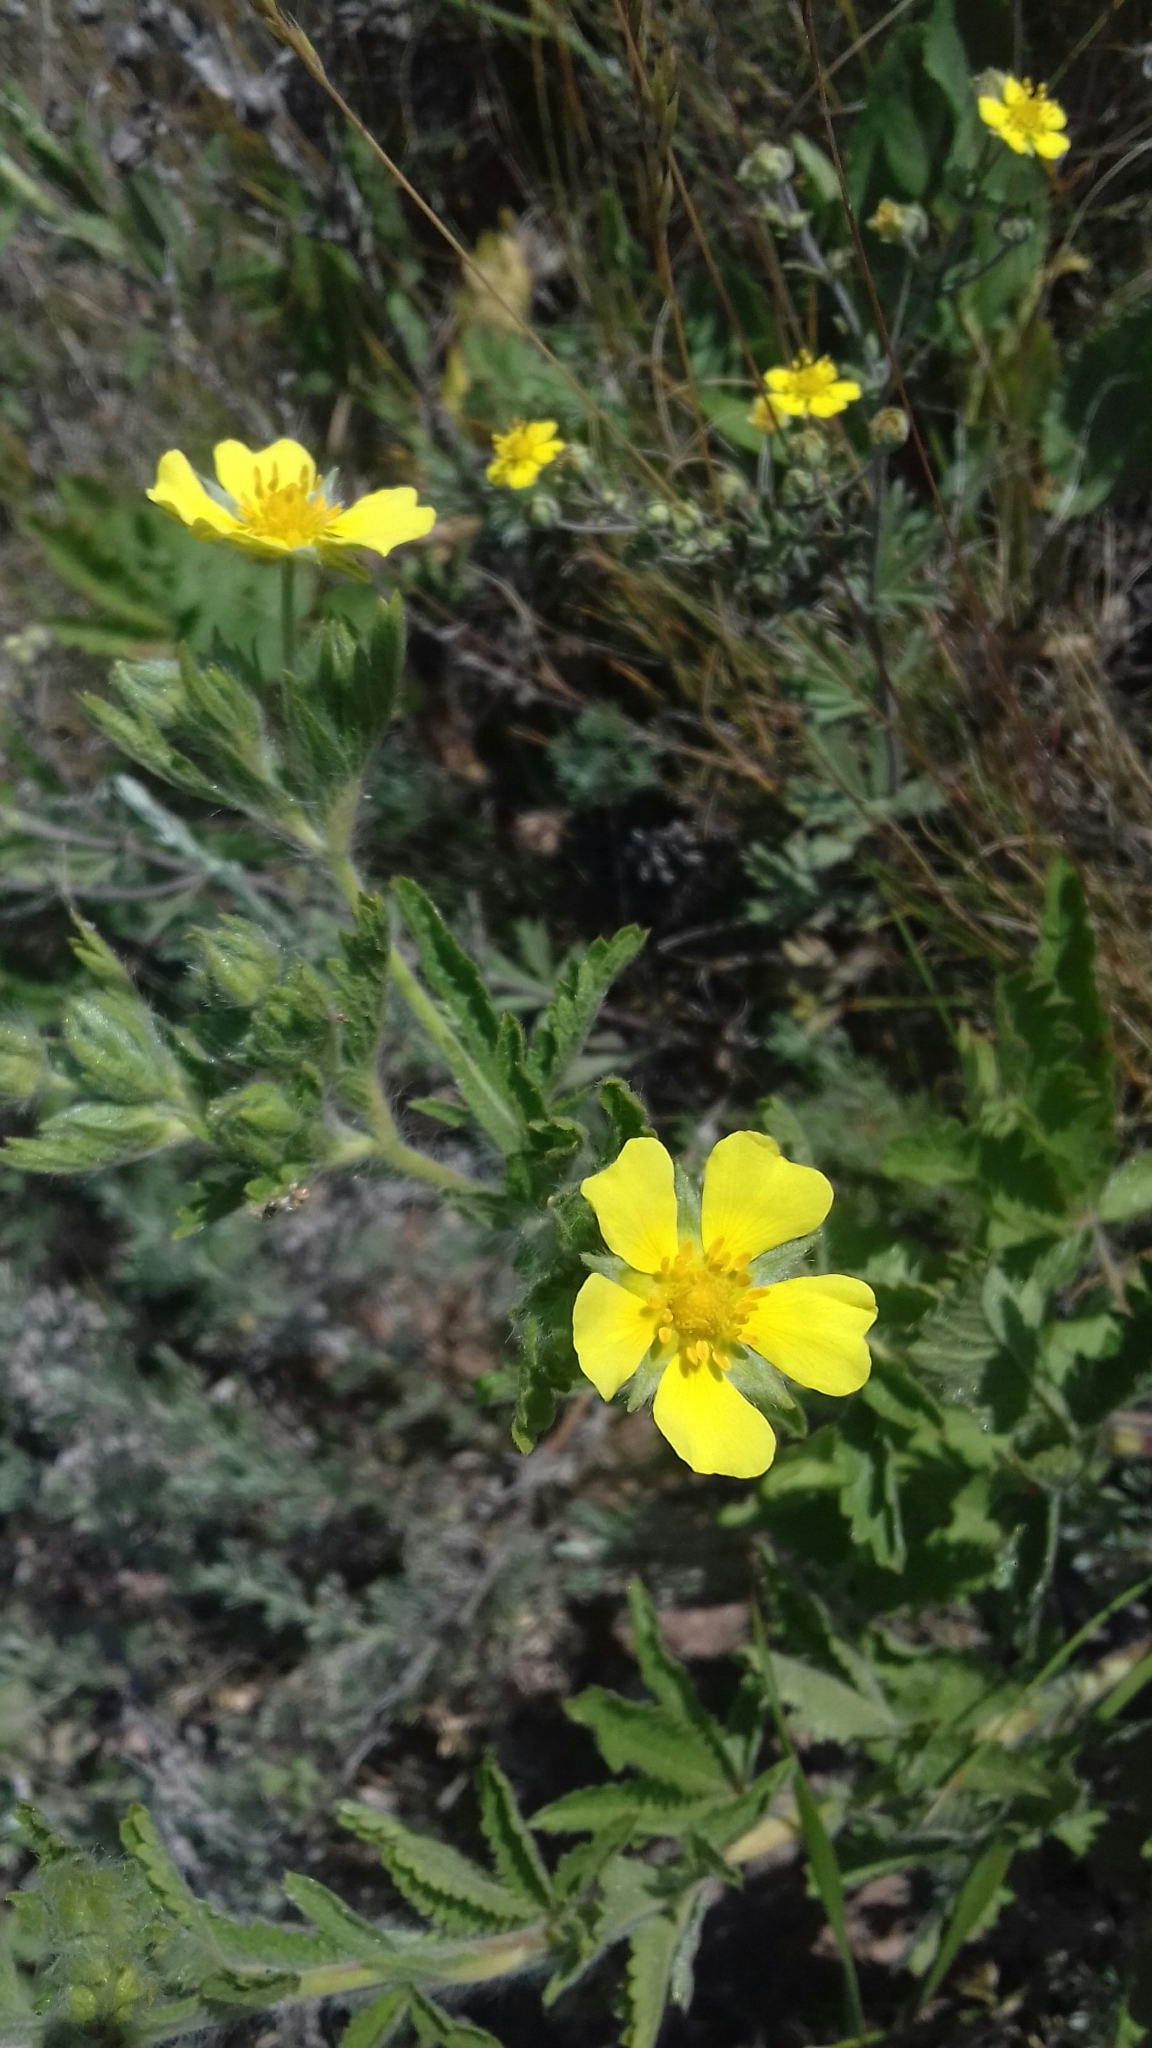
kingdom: Plantae
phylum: Tracheophyta
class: Magnoliopsida
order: Rosales
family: Rosaceae
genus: Potentilla
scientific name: Potentilla recta
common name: Sulphur cinquefoil
